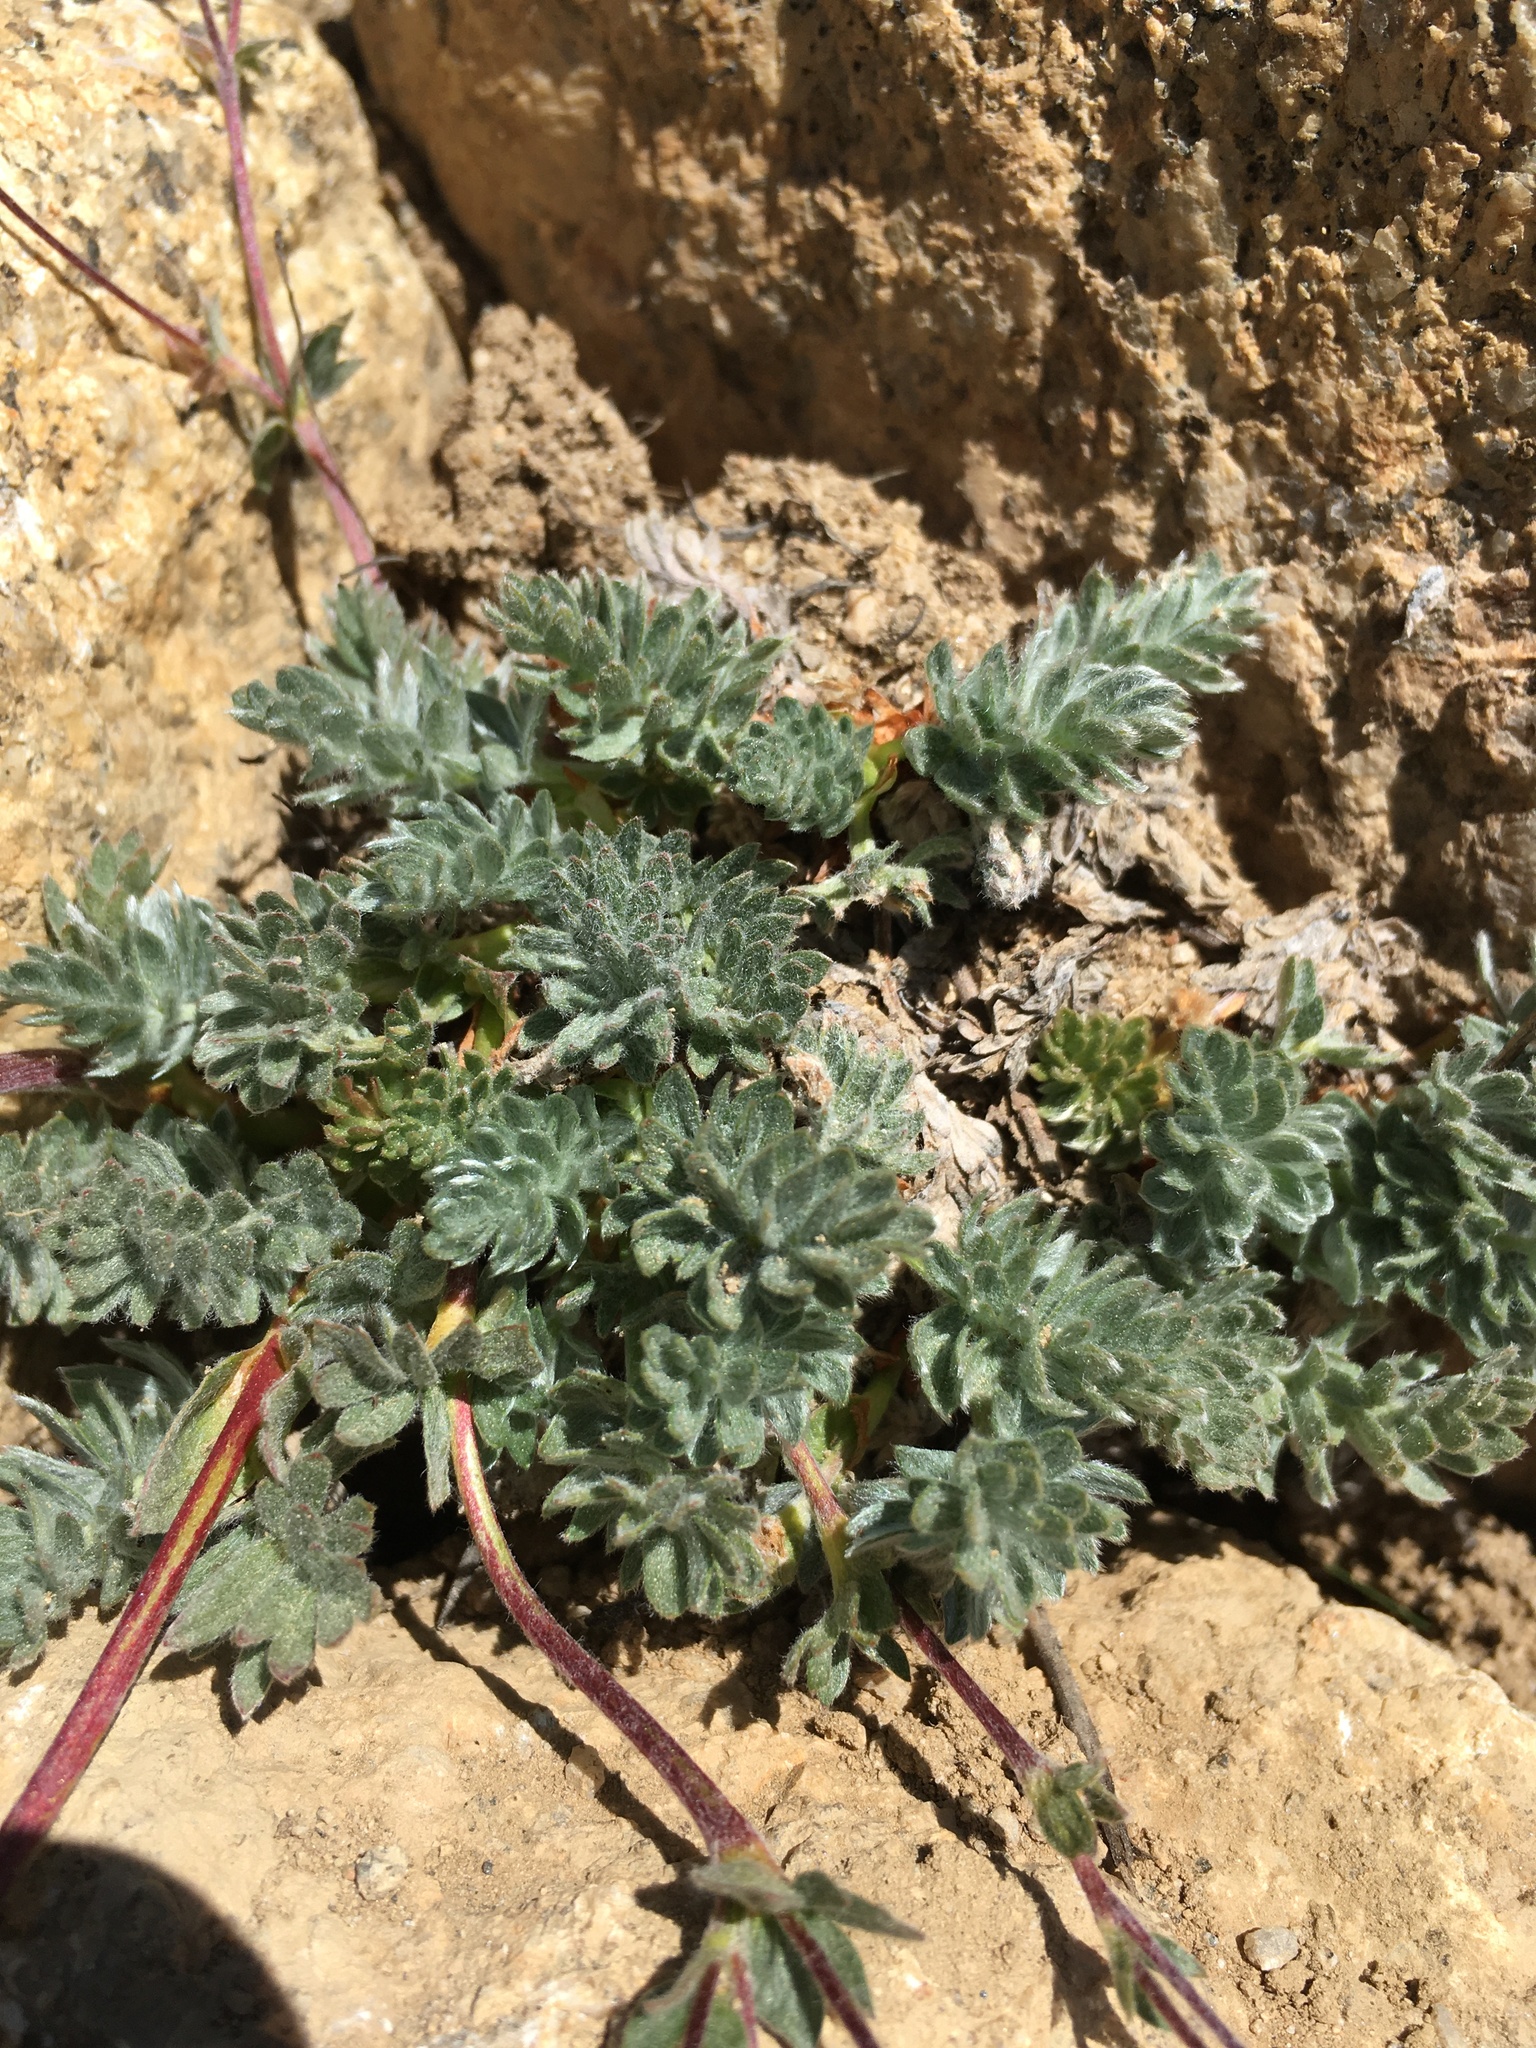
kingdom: Plantae
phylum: Tracheophyta
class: Magnoliopsida
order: Rosales
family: Rosaceae
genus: Potentilla
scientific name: Potentilla breweri
